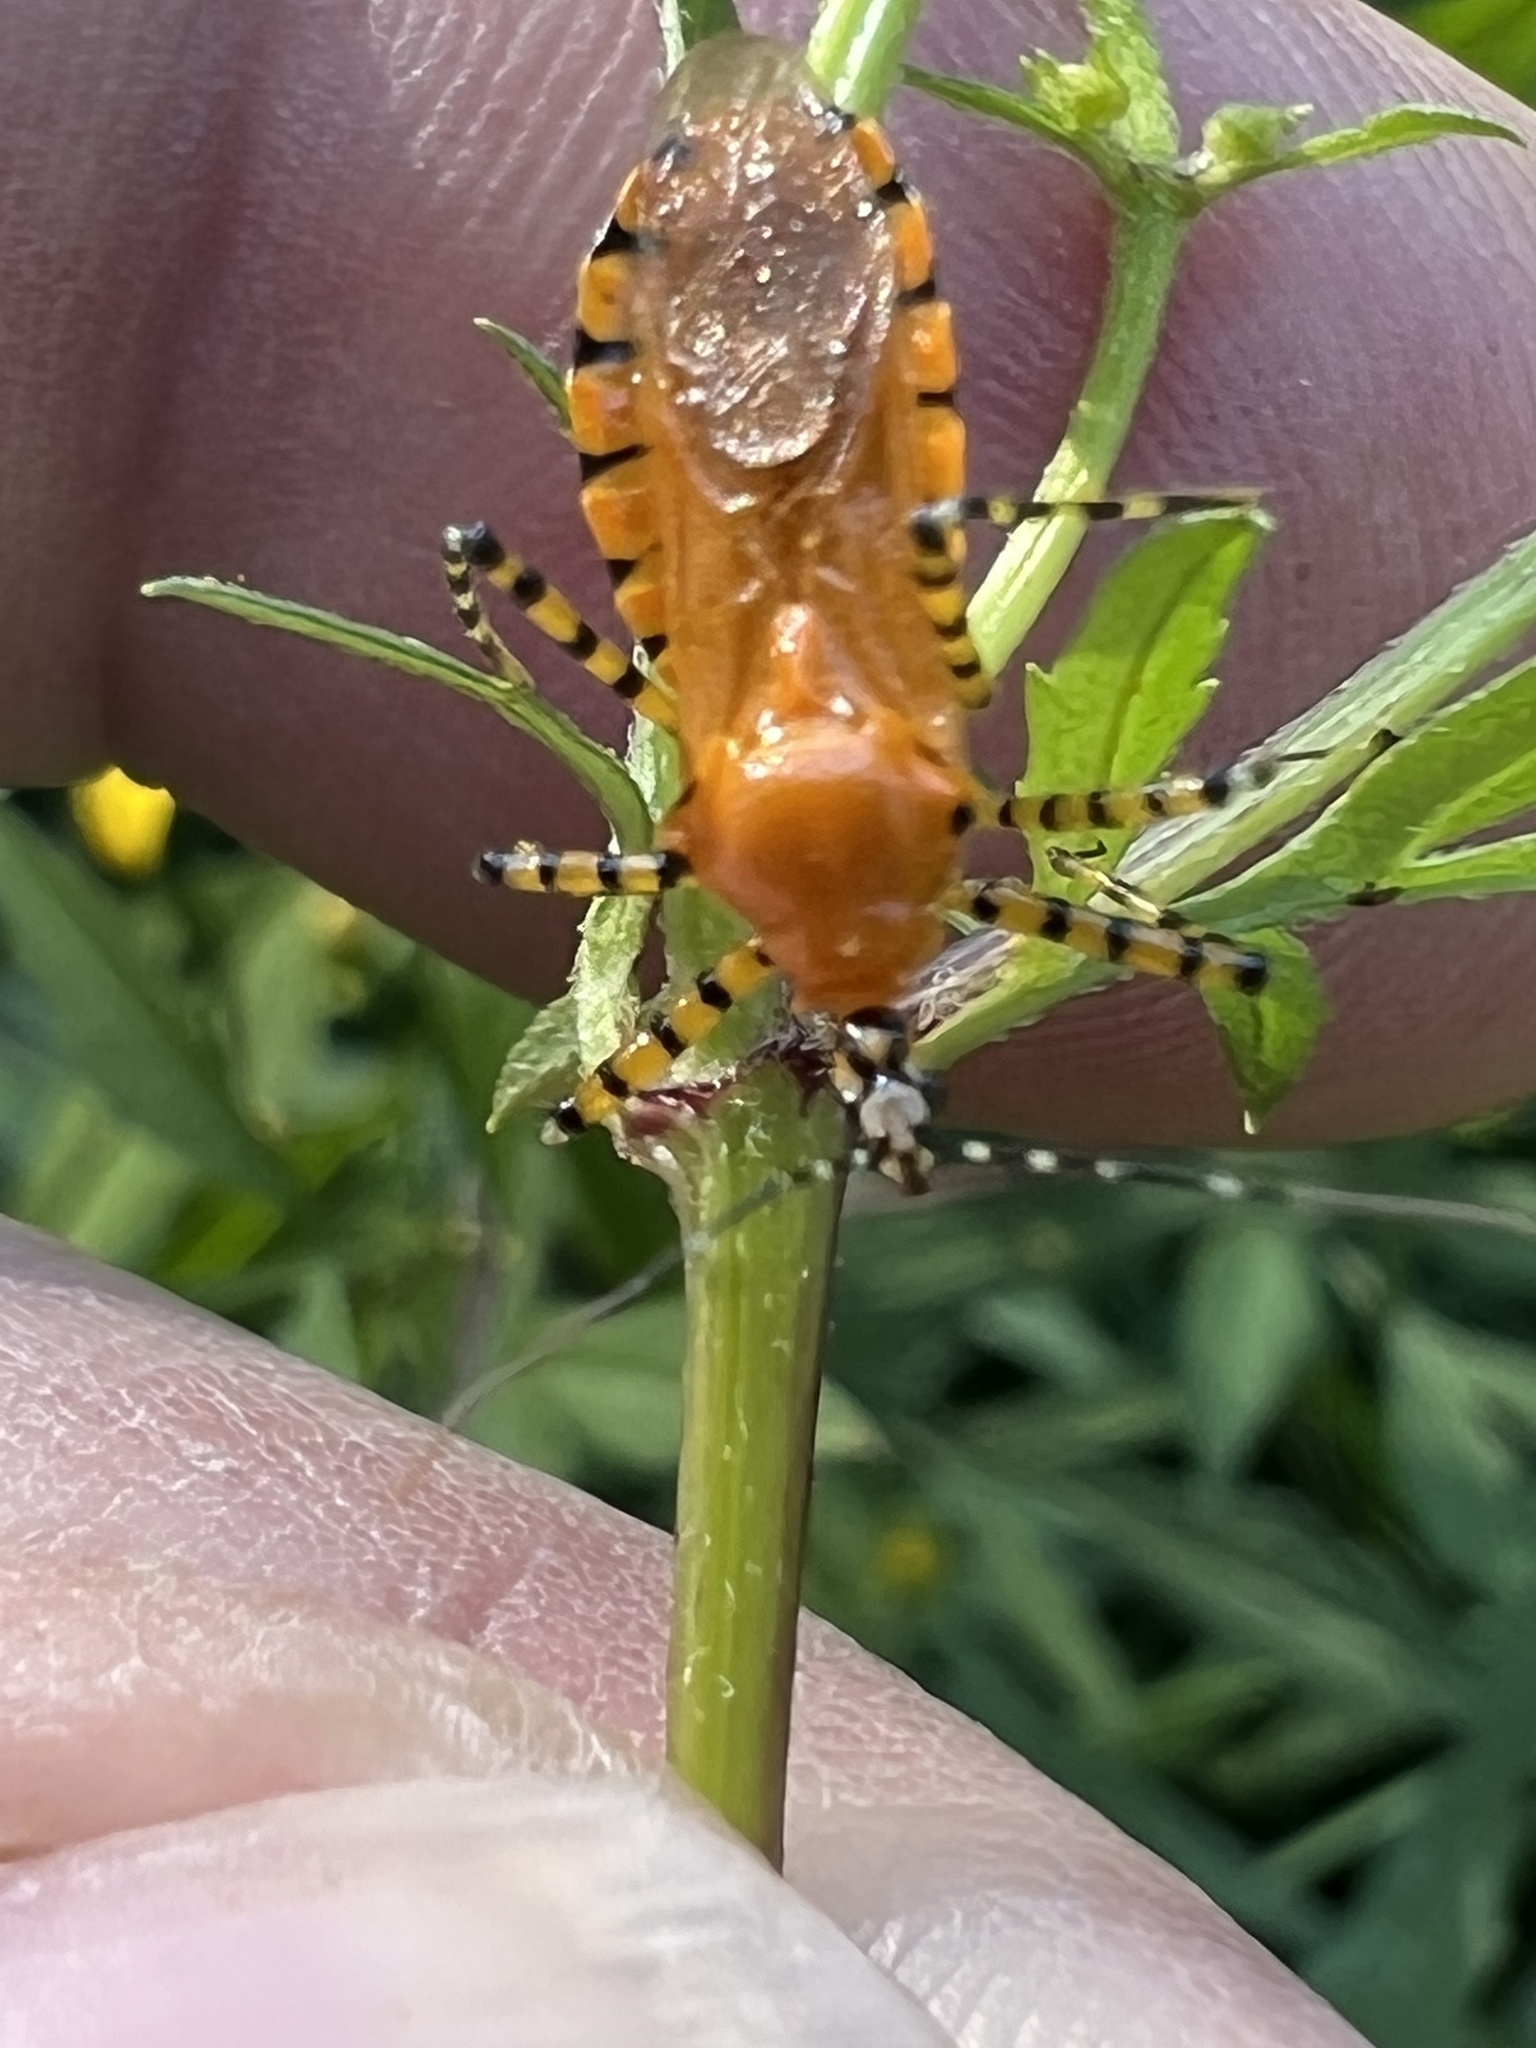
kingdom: Animalia
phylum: Arthropoda
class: Insecta
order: Hemiptera
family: Reduviidae
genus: Pselliopus
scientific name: Pselliopus barberi
